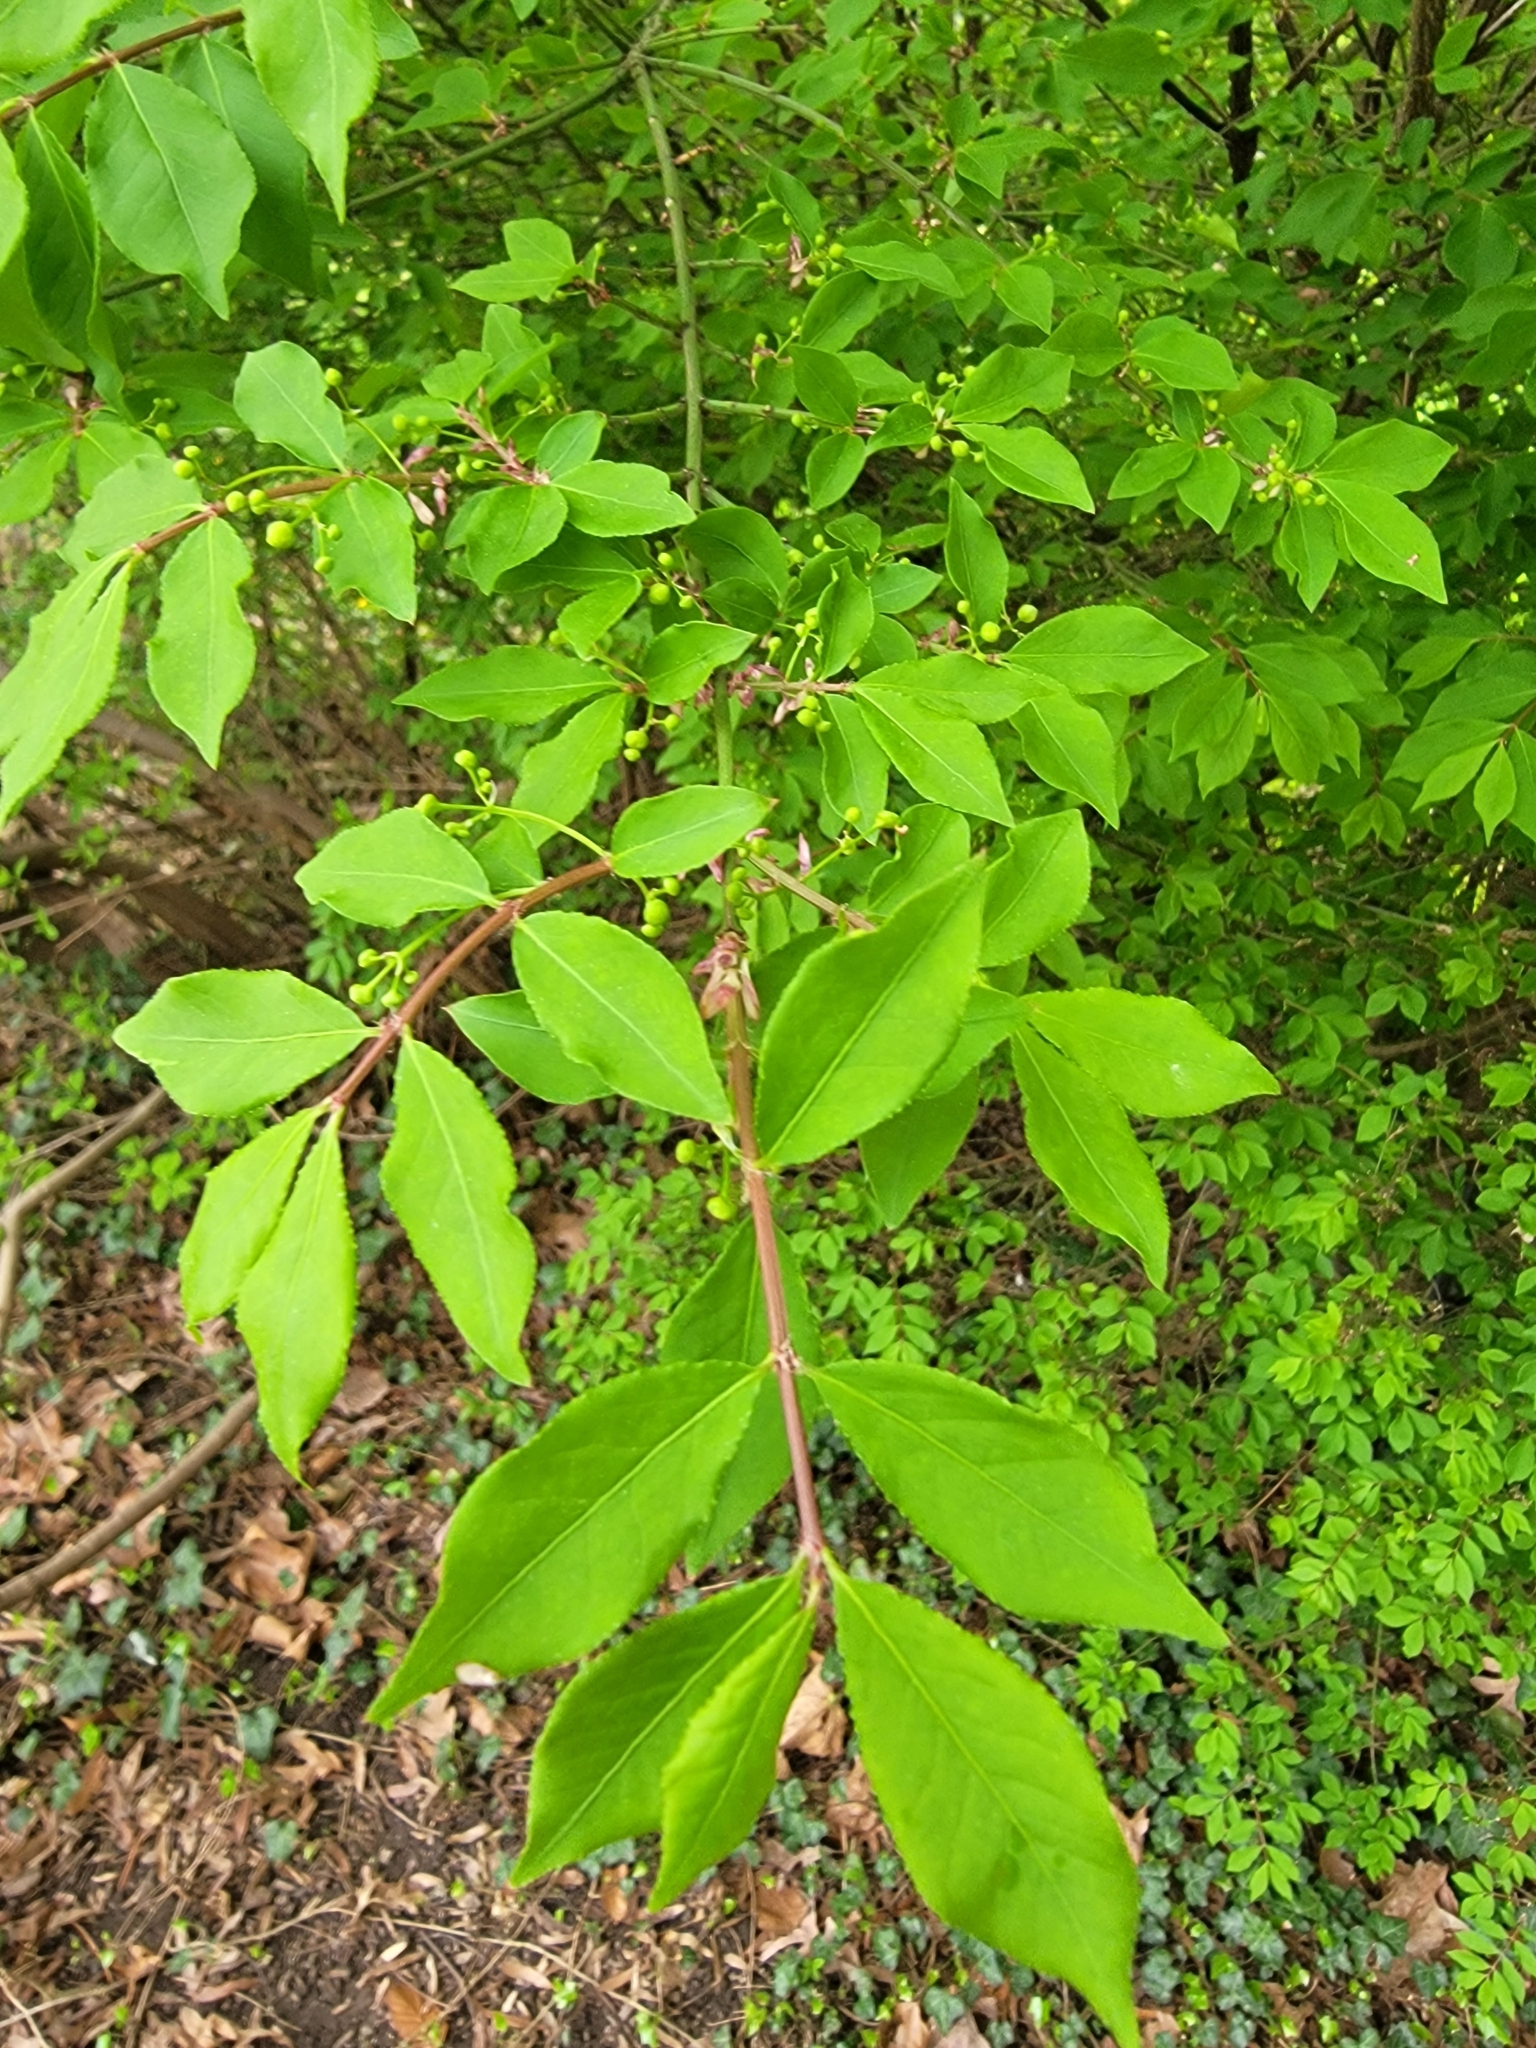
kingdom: Plantae
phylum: Tracheophyta
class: Magnoliopsida
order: Celastrales
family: Celastraceae
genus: Euonymus
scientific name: Euonymus alatus
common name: Winged euonymus
